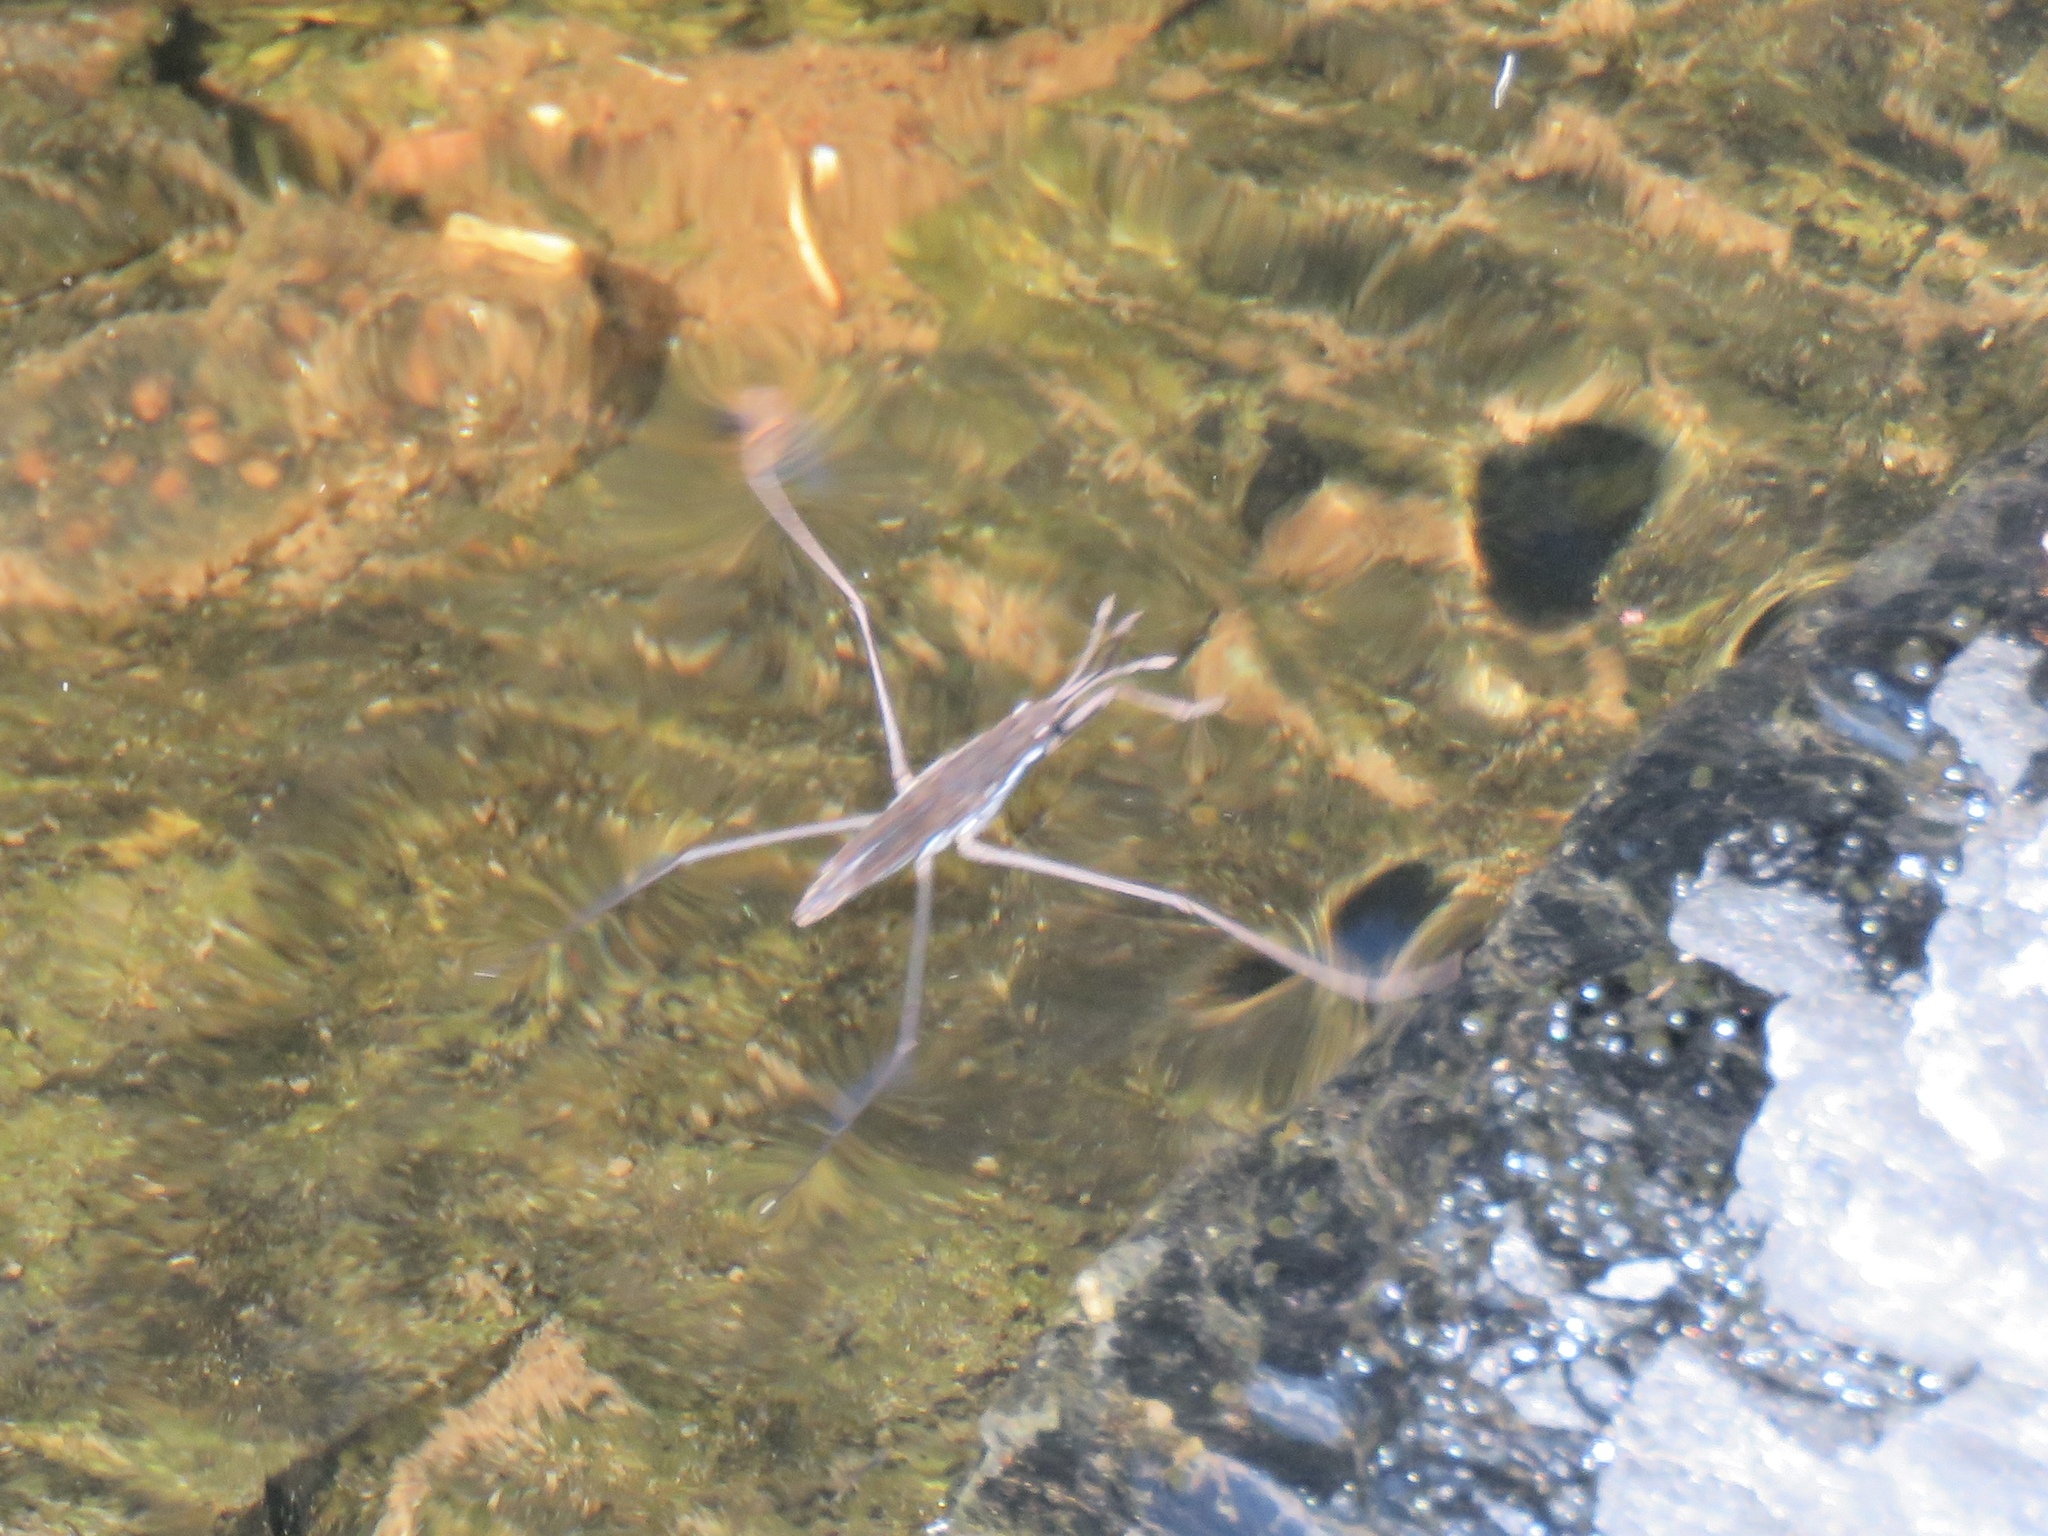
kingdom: Animalia
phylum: Arthropoda
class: Insecta
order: Hemiptera
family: Gerridae
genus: Aquarius
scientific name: Aquarius remigis
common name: Common water strider
